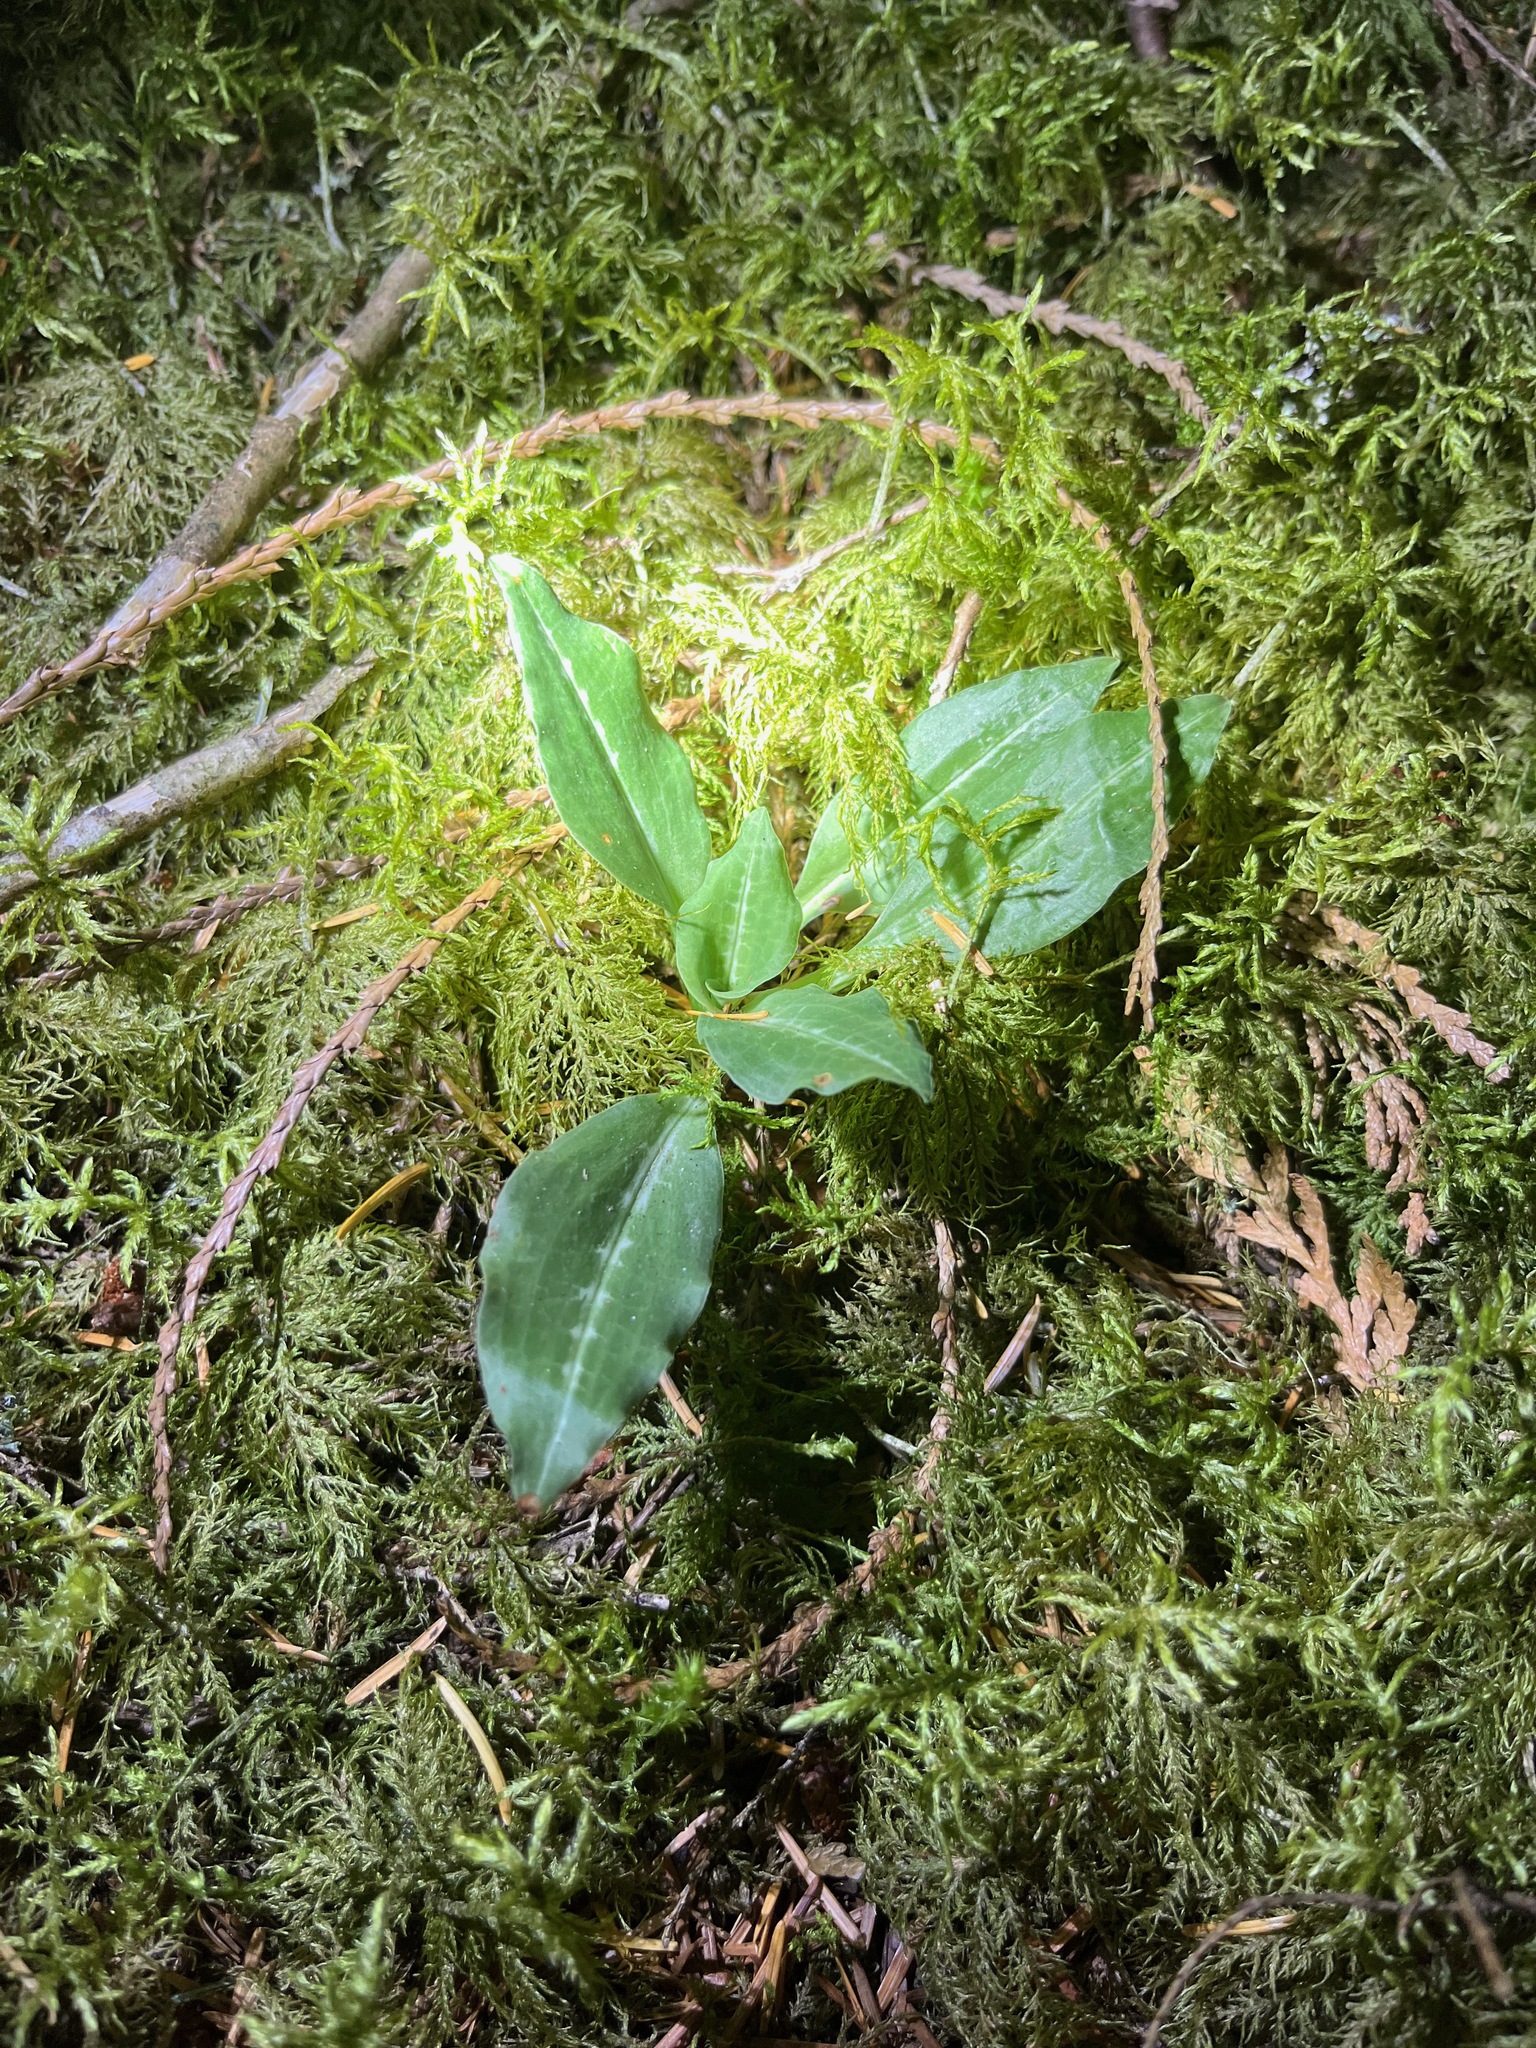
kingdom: Plantae
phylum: Tracheophyta
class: Liliopsida
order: Asparagales
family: Orchidaceae
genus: Goodyera
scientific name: Goodyera oblongifolia
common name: Giant rattlesnake-plantain
